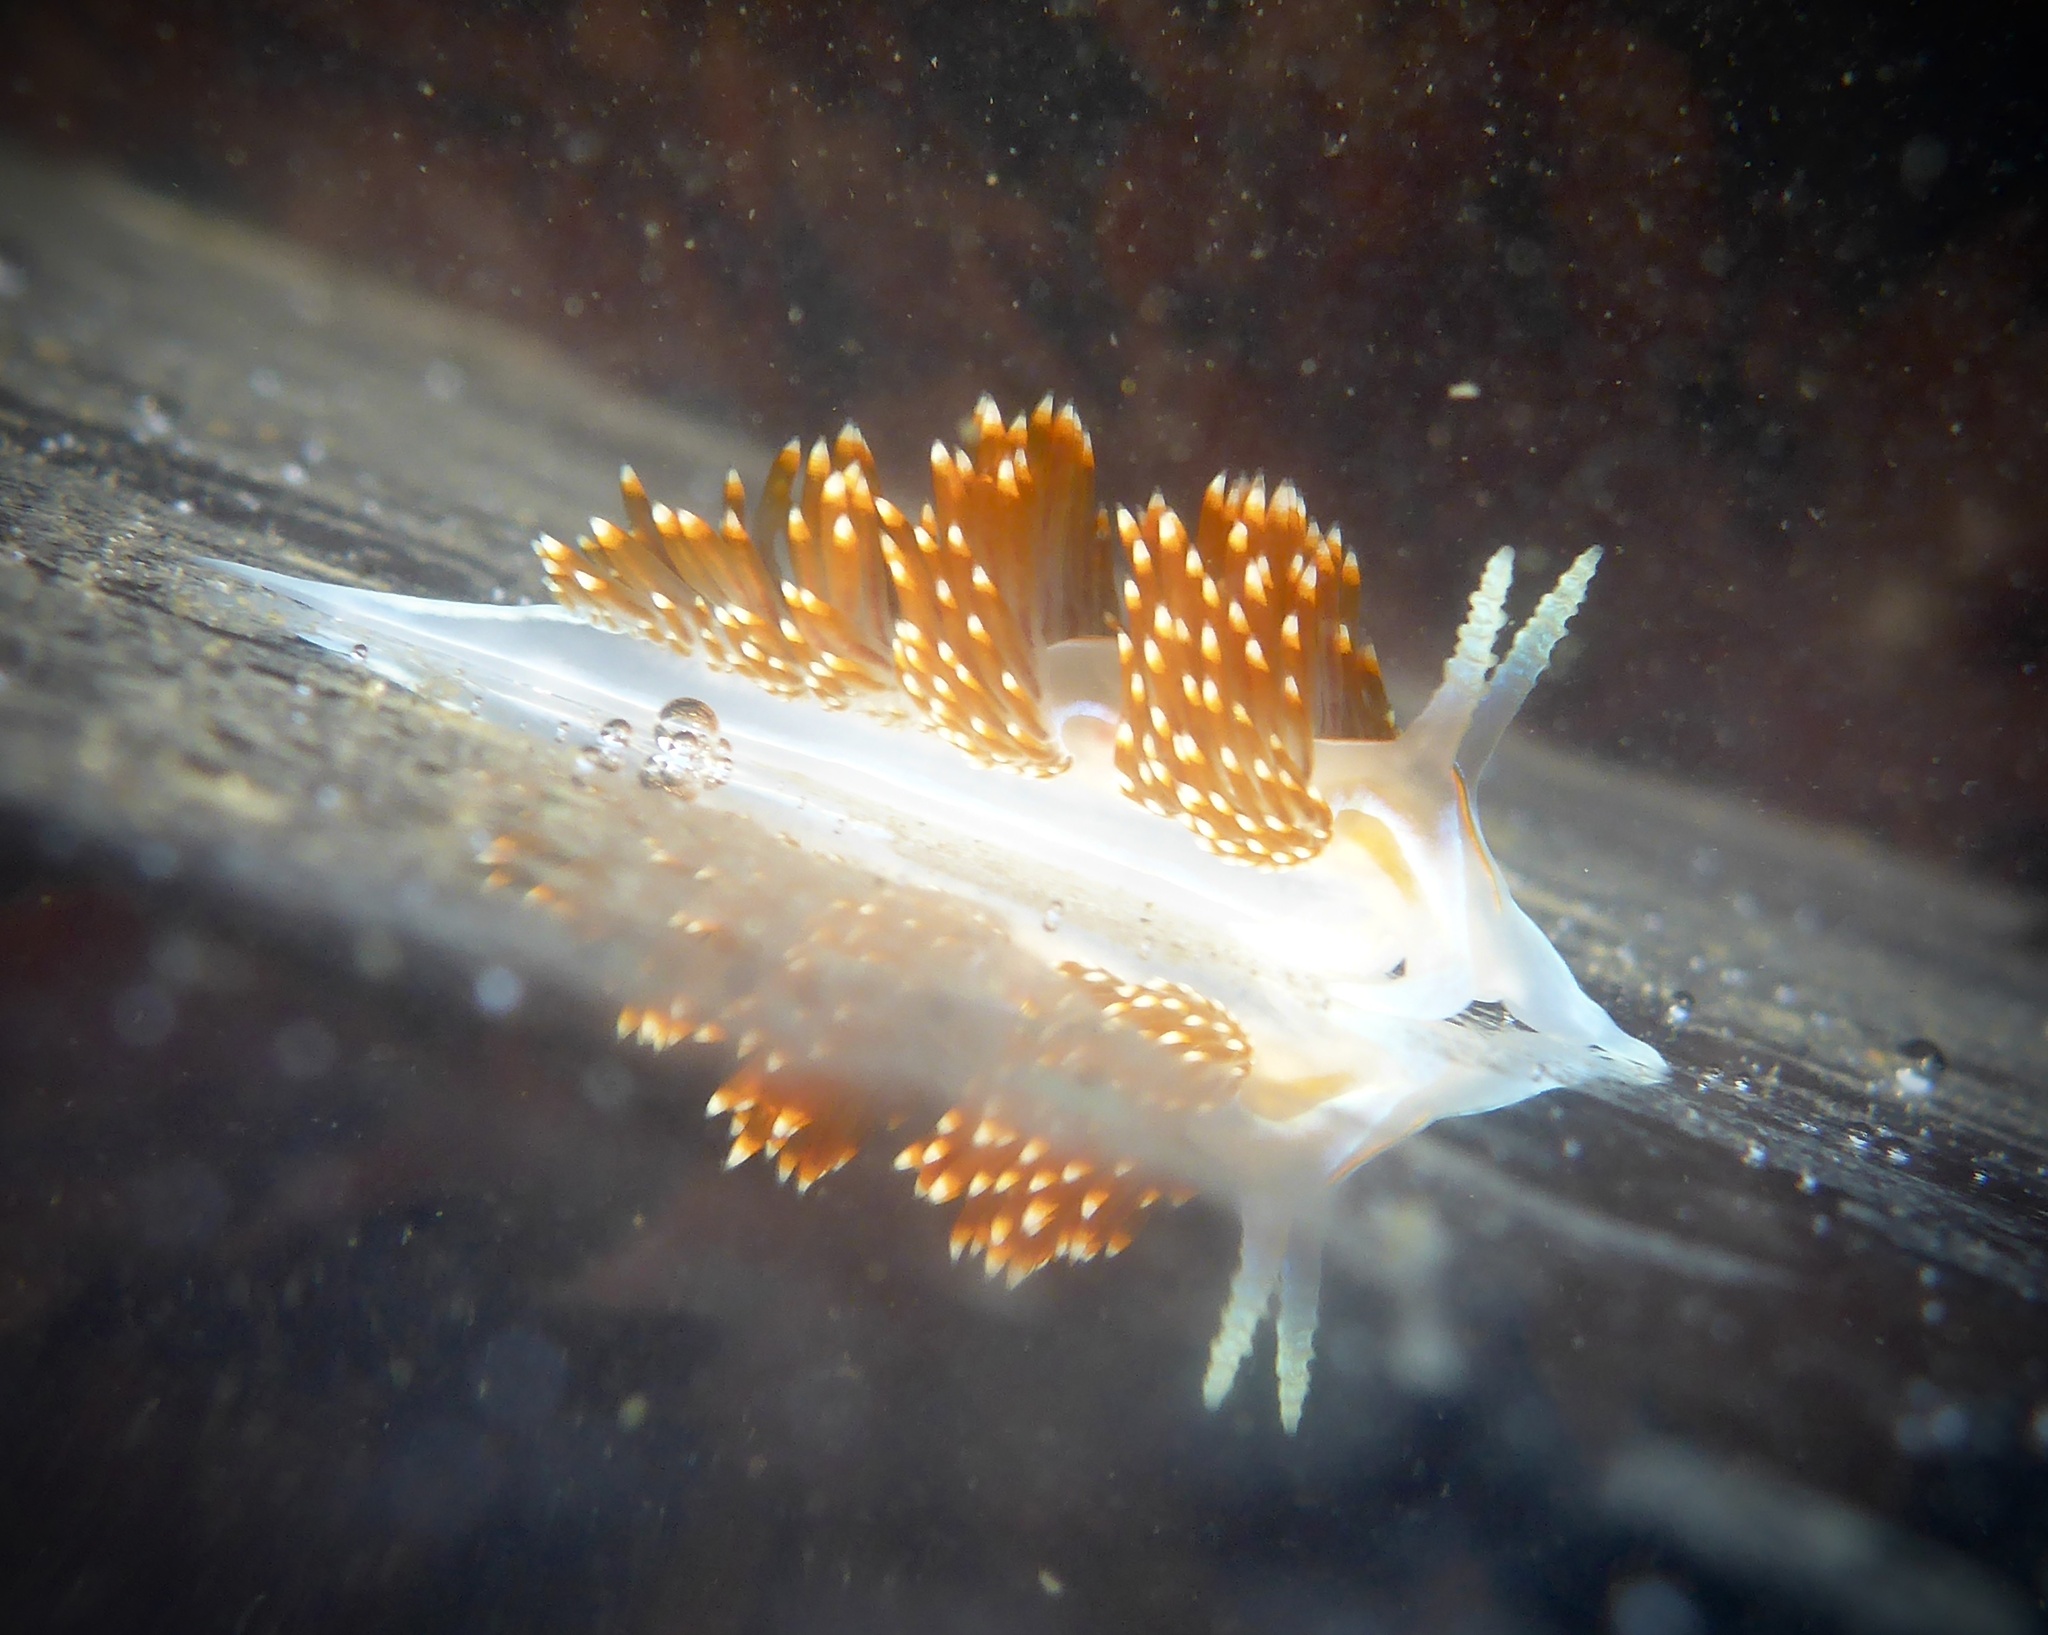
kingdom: Animalia
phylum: Mollusca
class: Gastropoda
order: Nudibranchia
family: Myrrhinidae
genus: Hermissenda
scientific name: Hermissenda opalescens
